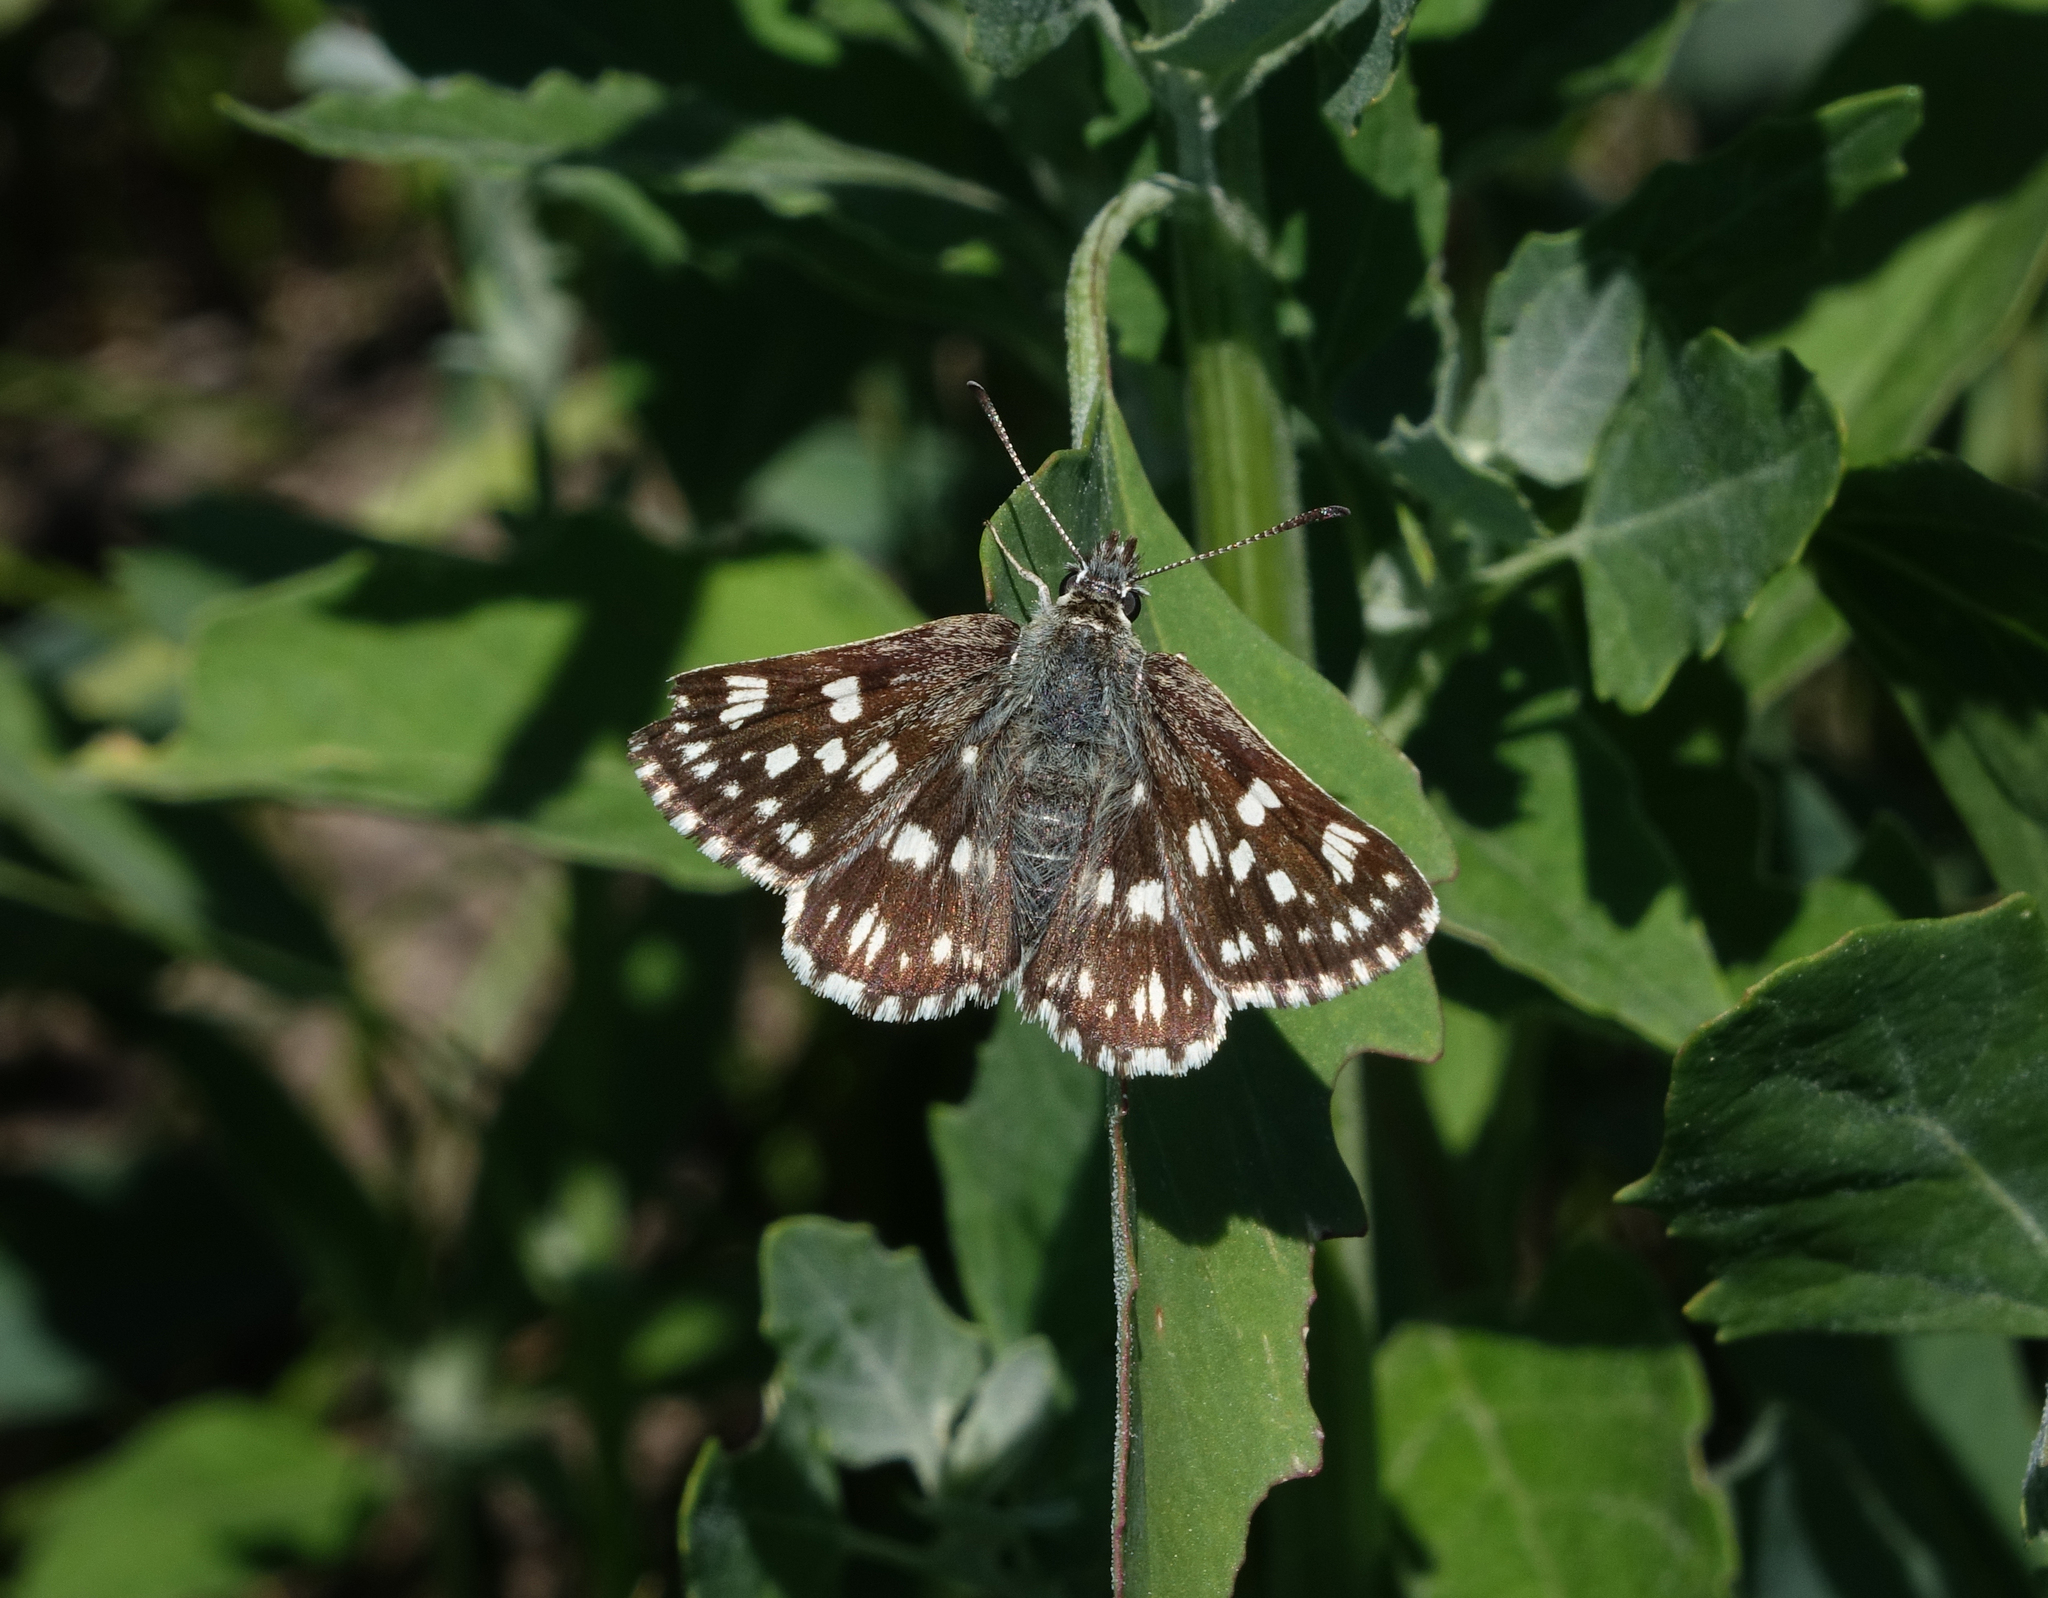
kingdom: Animalia
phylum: Arthropoda
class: Insecta
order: Lepidoptera
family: Hesperiidae
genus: Syrichtus
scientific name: Syrichtus tessellum
